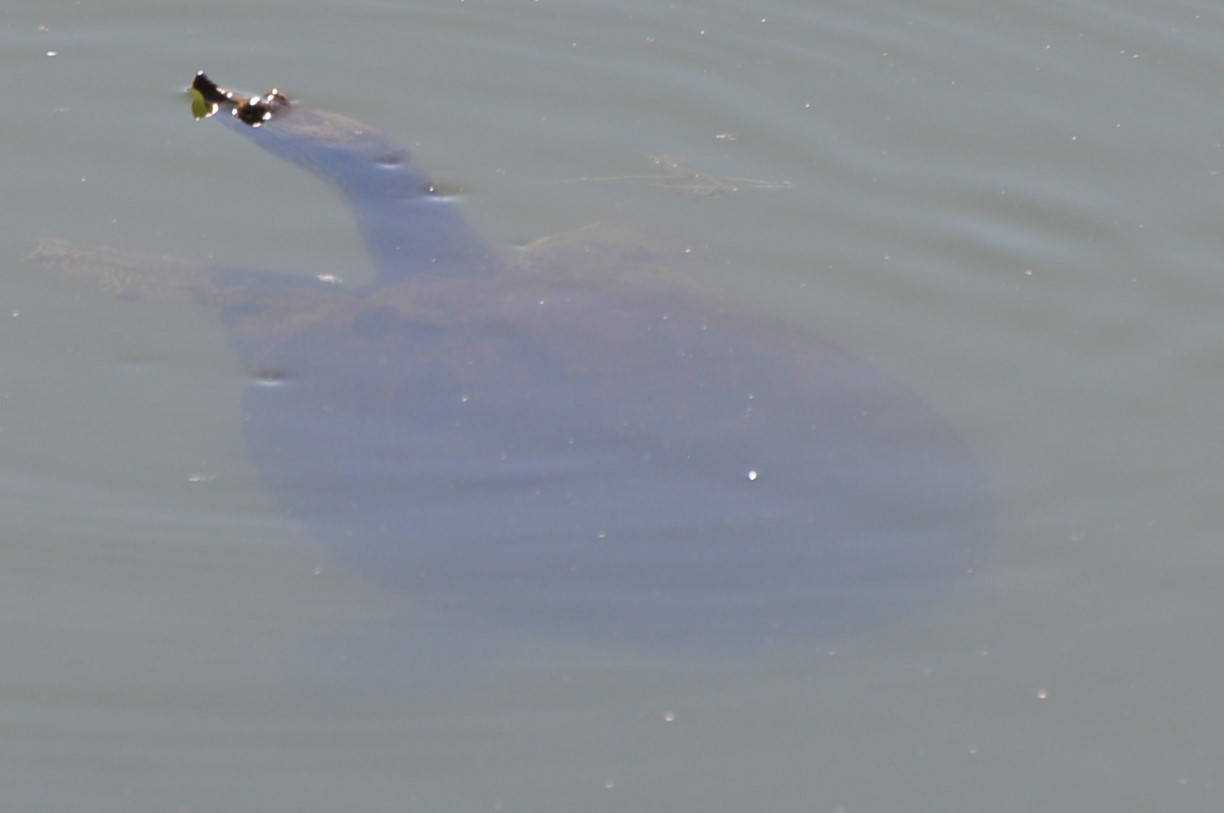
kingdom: Animalia
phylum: Chordata
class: Testudines
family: Trionychidae
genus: Apalone
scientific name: Apalone spinifera
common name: Spiny softshell turtle
